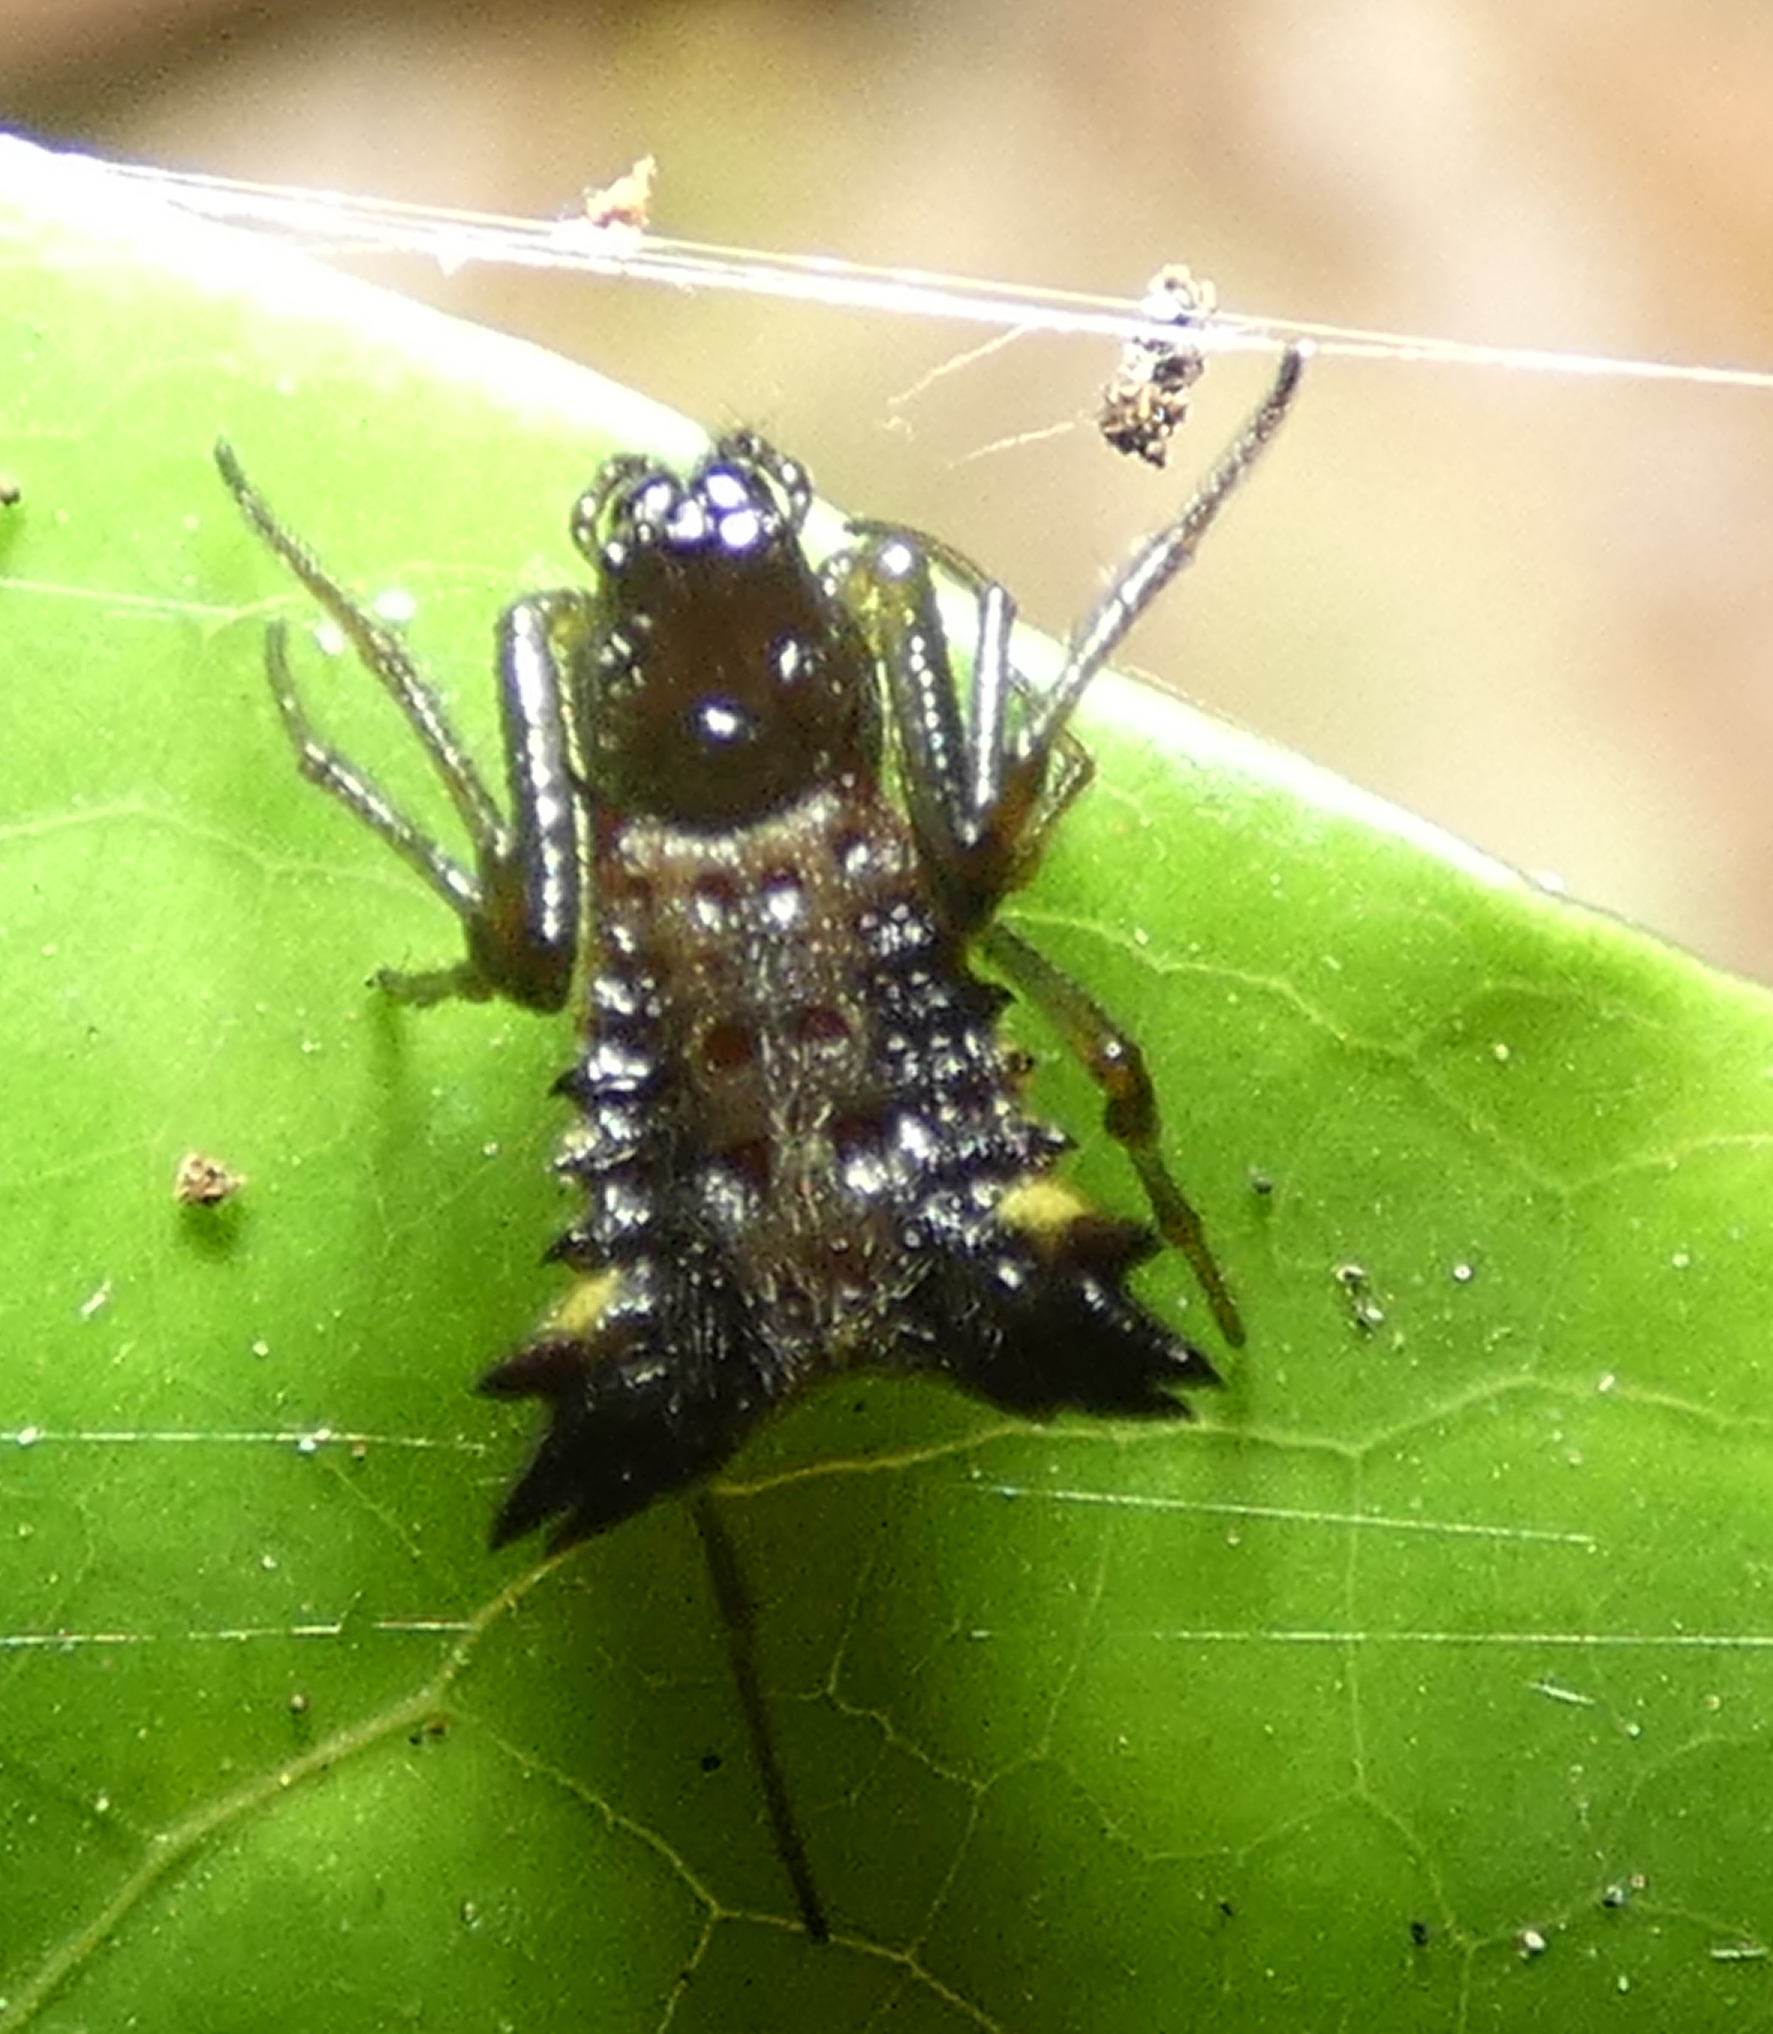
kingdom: Animalia
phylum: Arthropoda
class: Arachnida
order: Araneae
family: Araneidae
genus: Micrathena
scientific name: Micrathena triangularis
